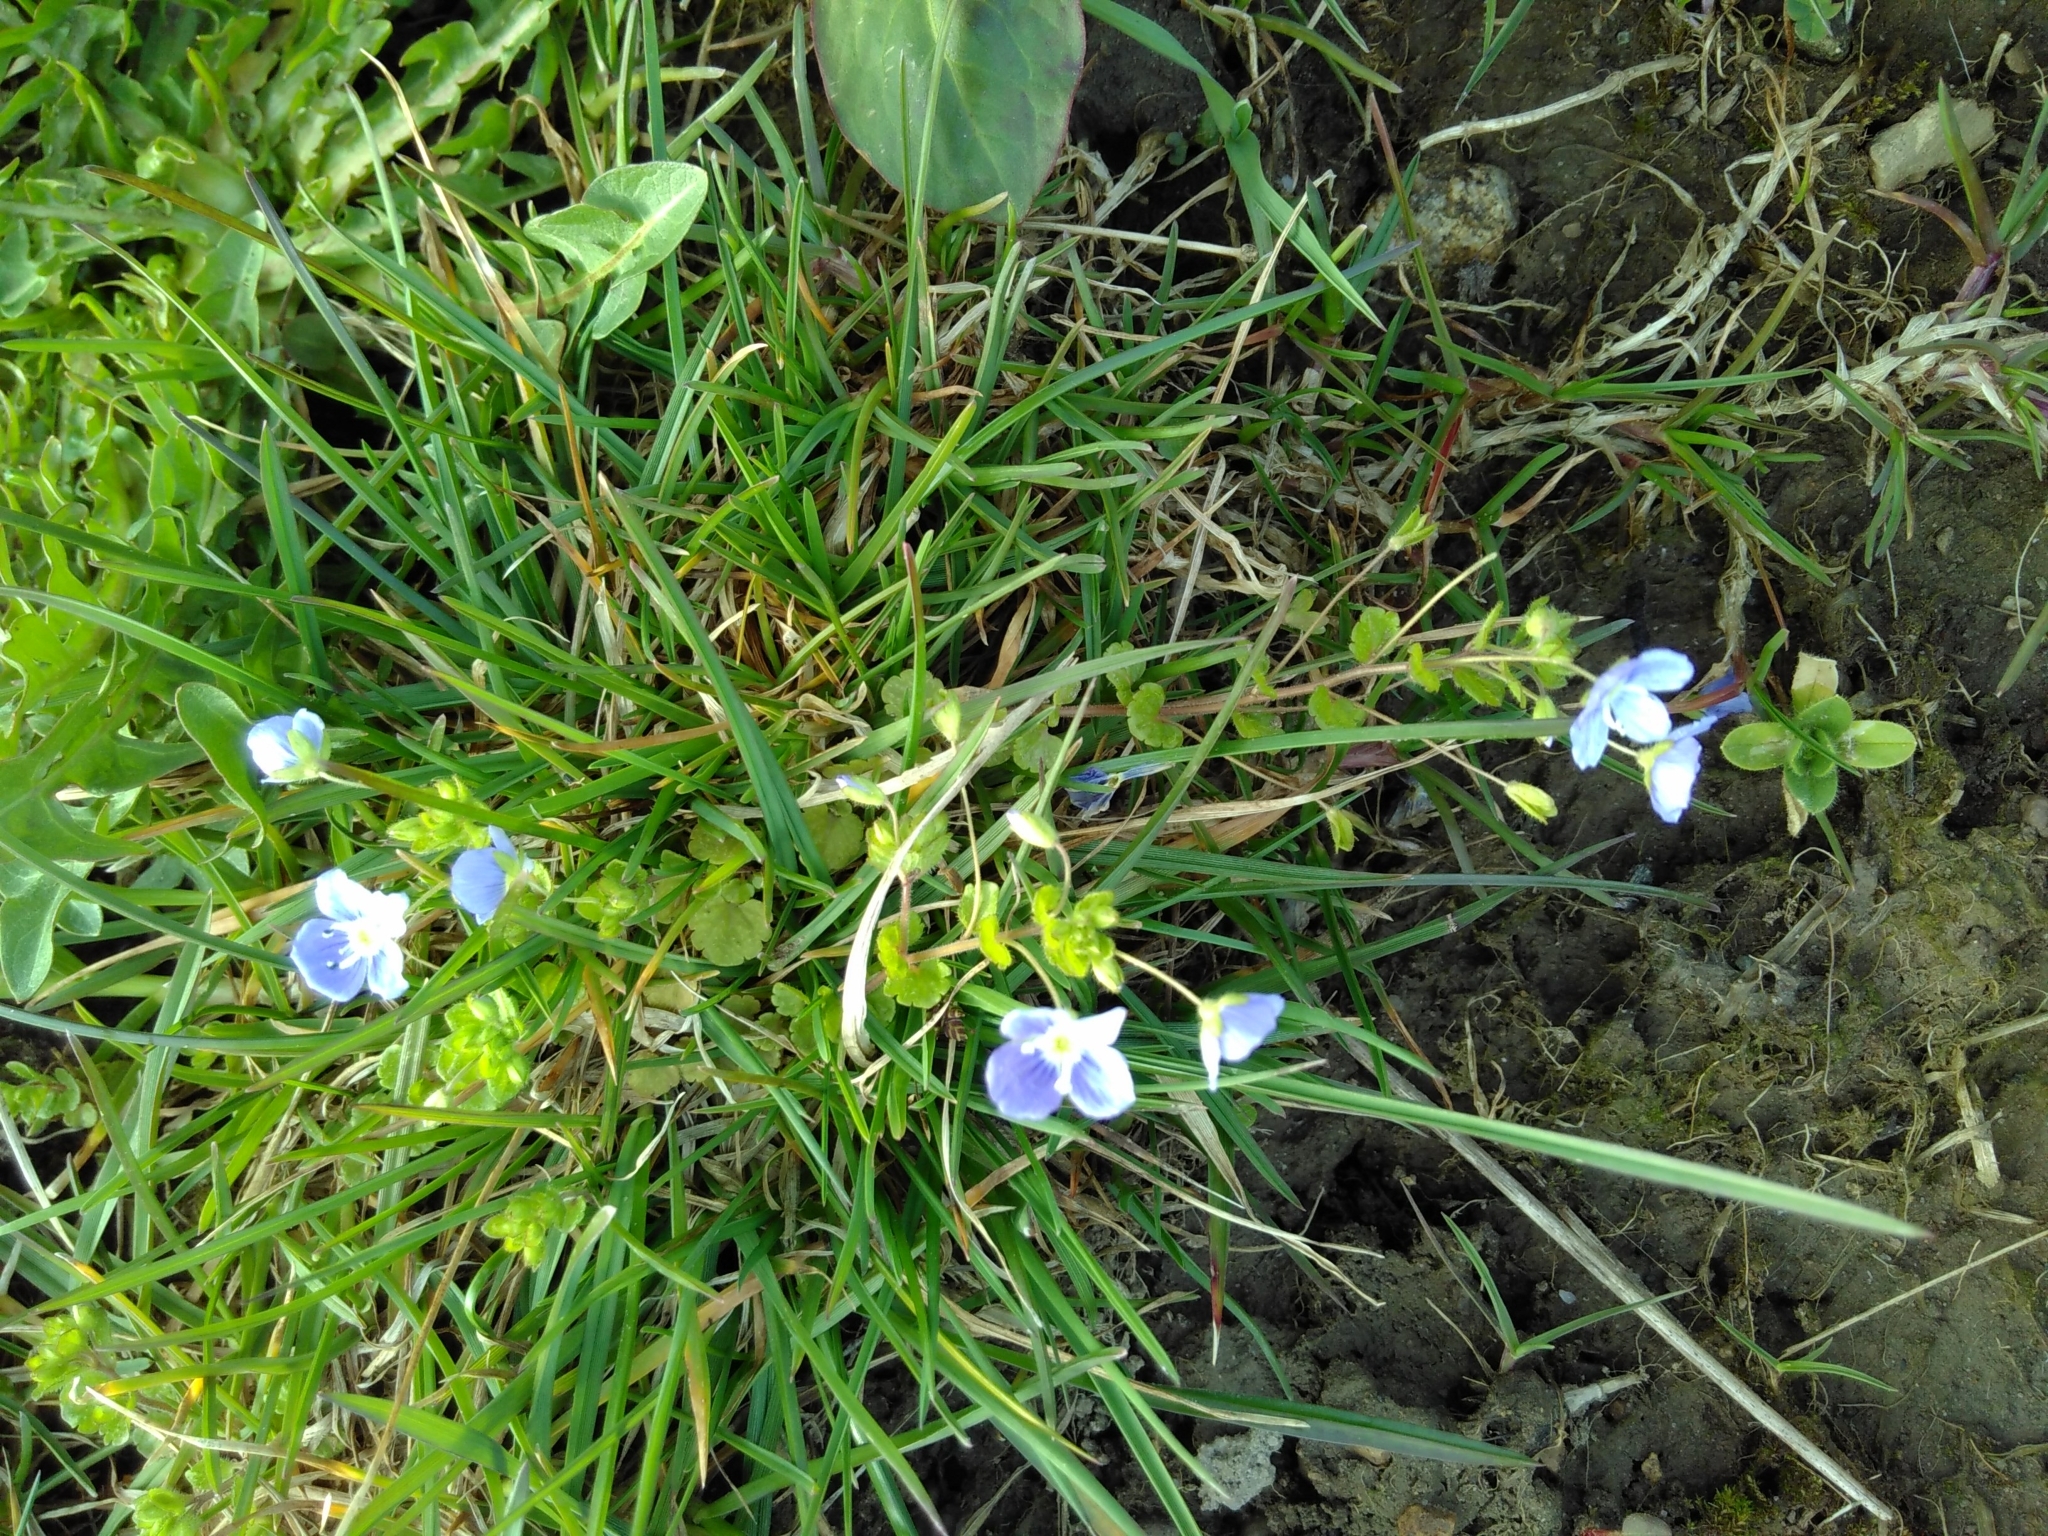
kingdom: Plantae
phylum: Tracheophyta
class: Magnoliopsida
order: Lamiales
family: Plantaginaceae
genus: Veronica
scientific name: Veronica filiformis
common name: Slender speedwell
